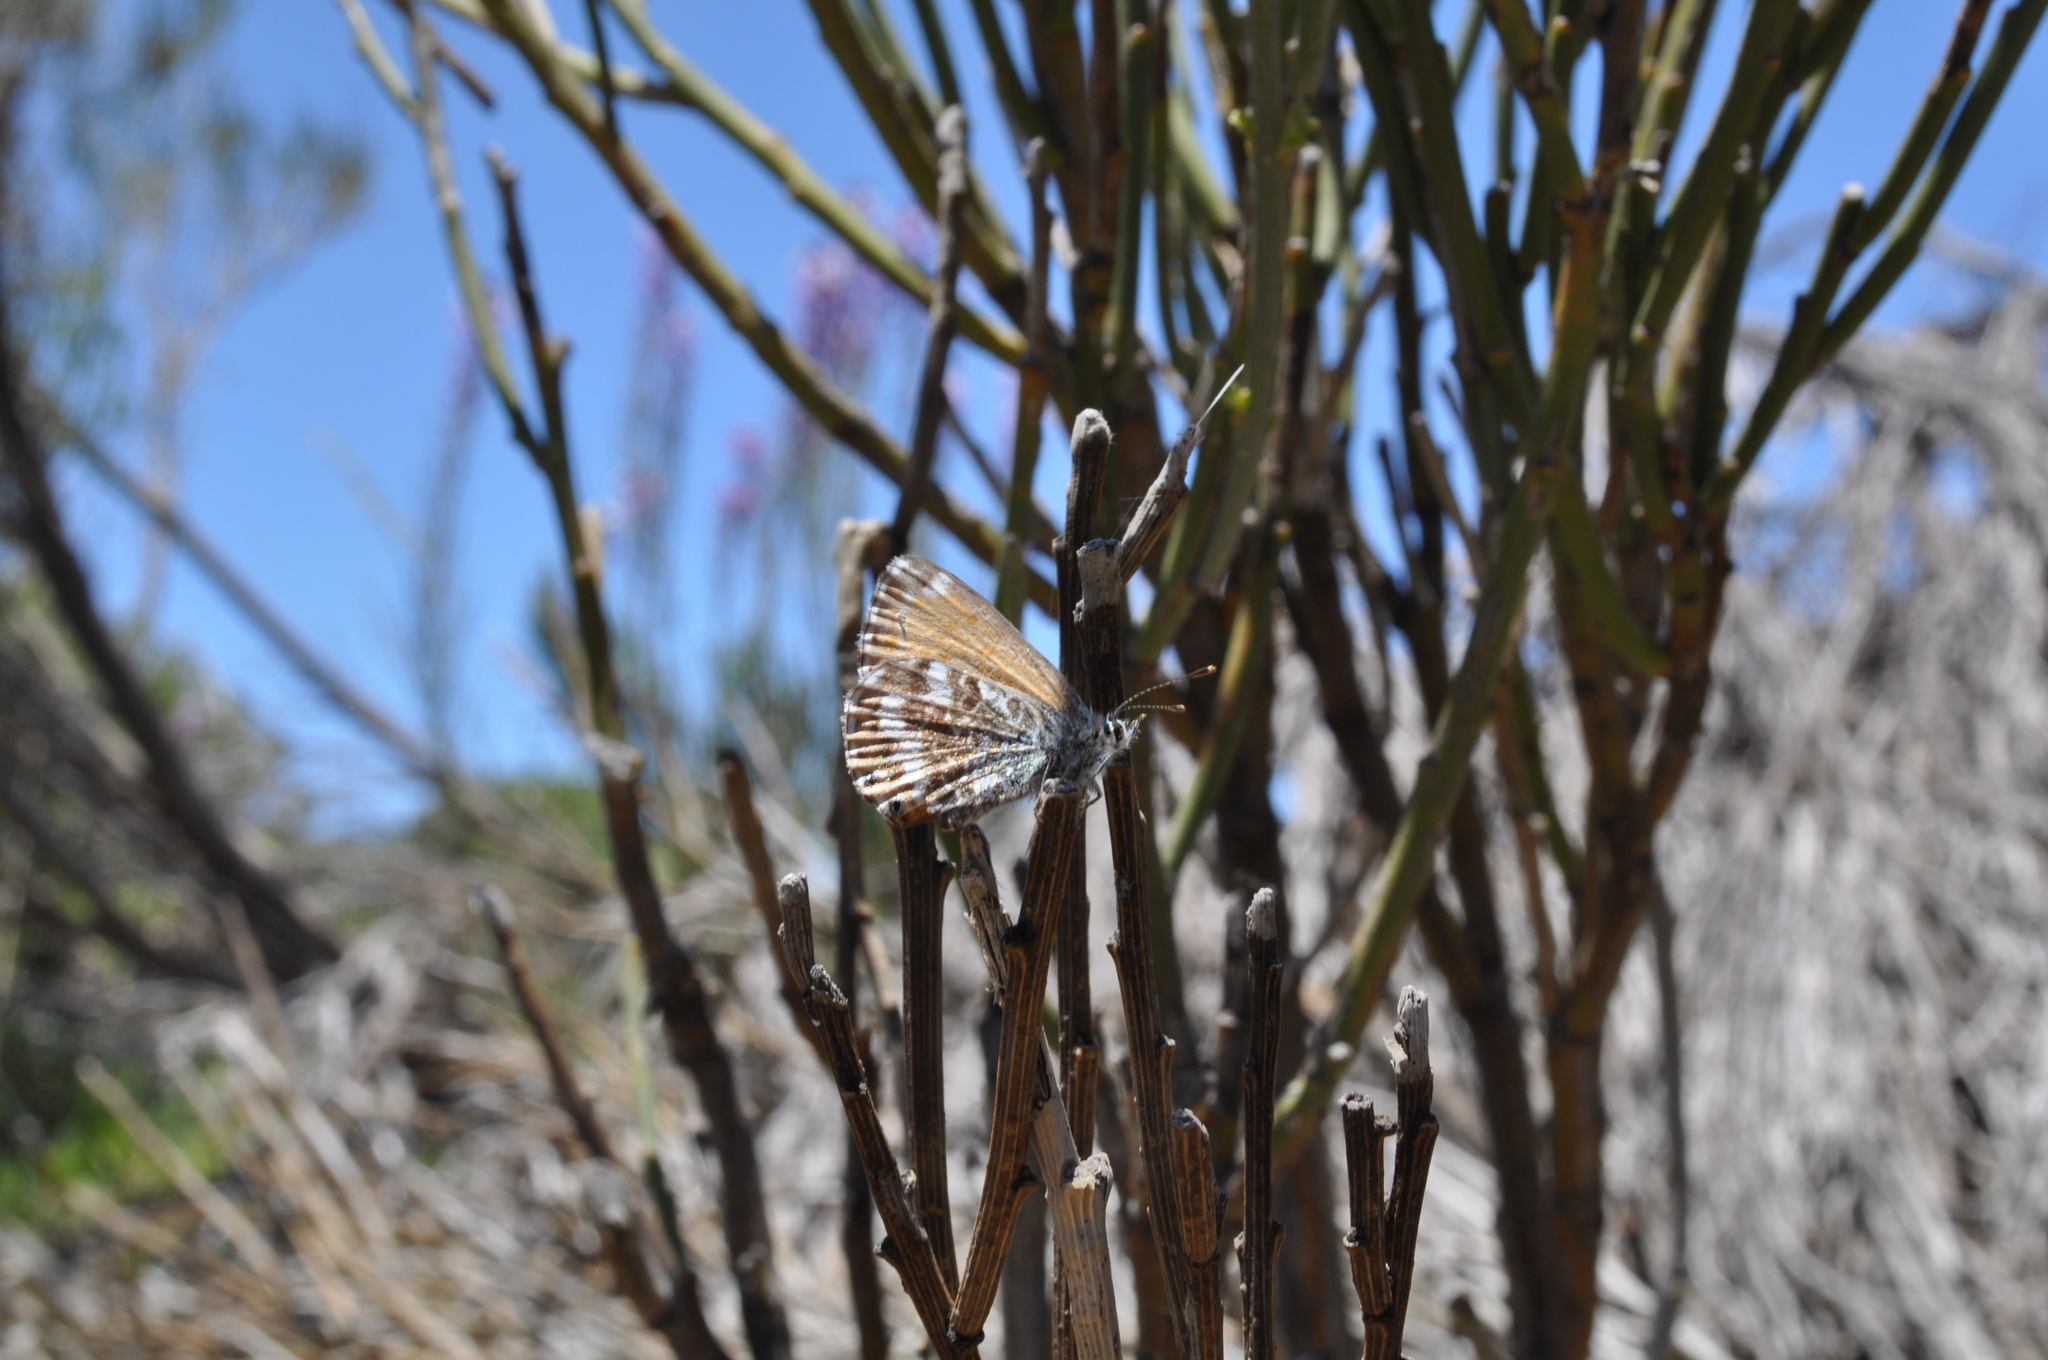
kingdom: Animalia
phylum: Arthropoda
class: Insecta
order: Lepidoptera
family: Lycaenidae
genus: Cyclyrius
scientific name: Cyclyrius webbianus
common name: Canary blue
